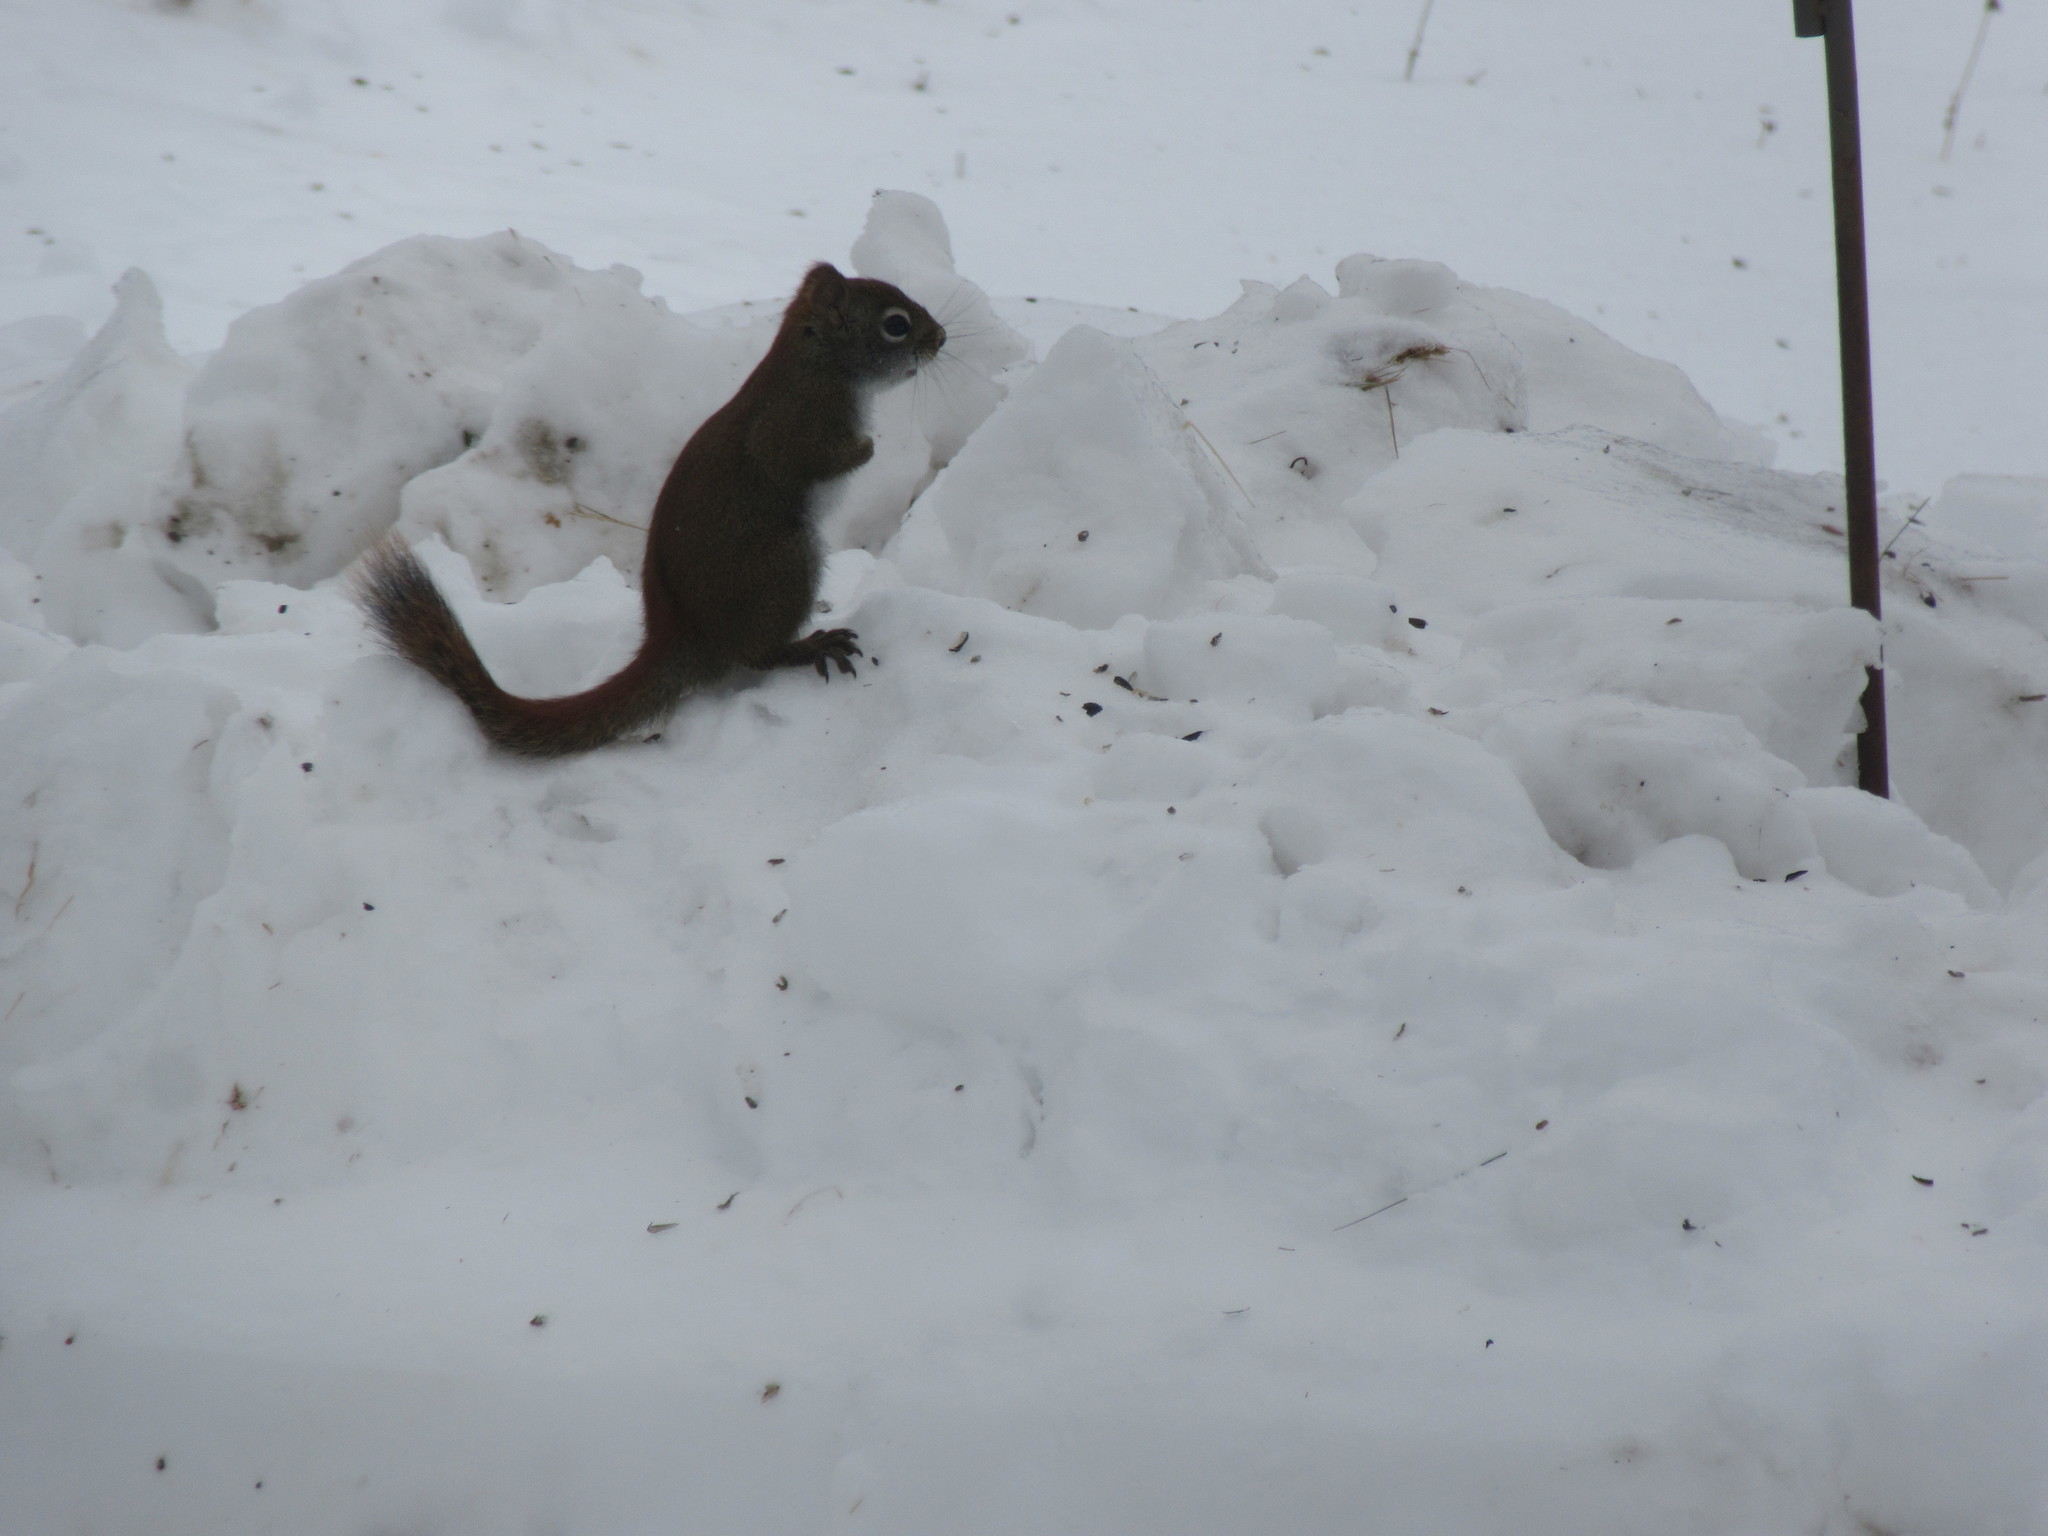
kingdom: Animalia
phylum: Chordata
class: Mammalia
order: Rodentia
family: Sciuridae
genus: Tamiasciurus
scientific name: Tamiasciurus hudsonicus
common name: Red squirrel
